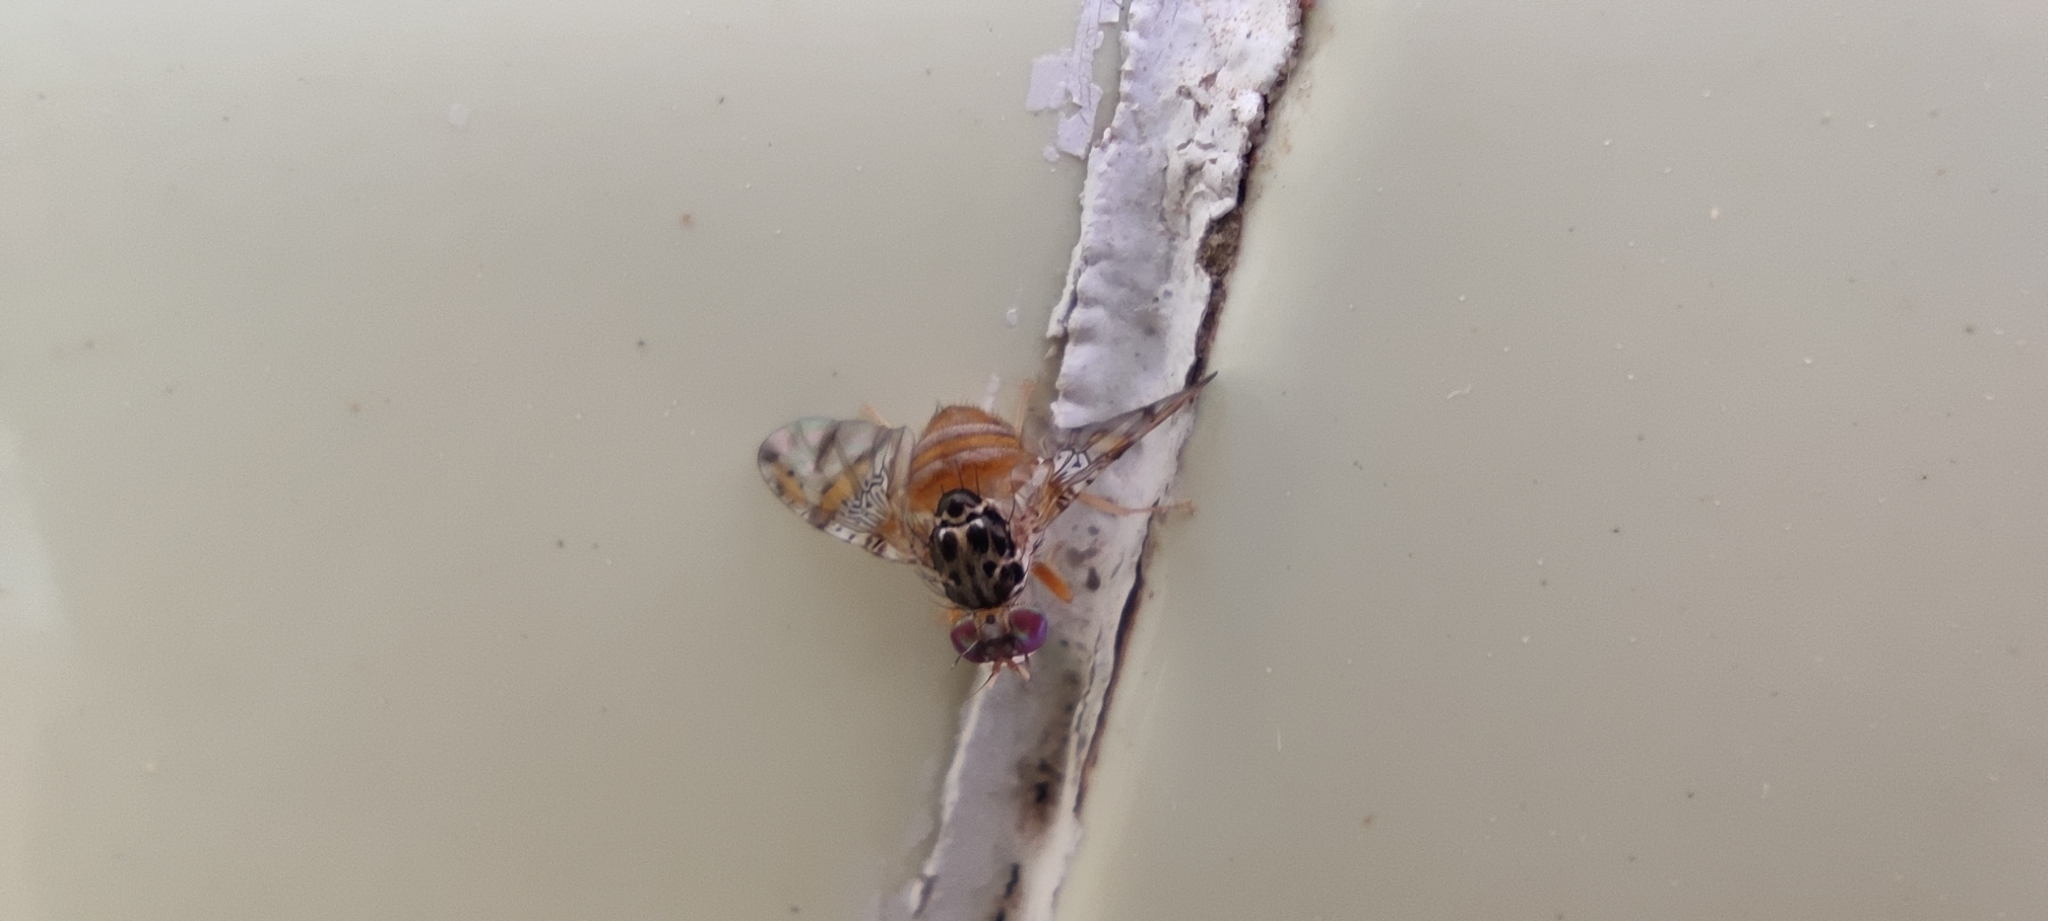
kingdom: Animalia
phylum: Arthropoda
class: Insecta
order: Diptera
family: Tephritidae
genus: Ceratitis
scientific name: Ceratitis capitata
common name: Mediterranean fruit fly
